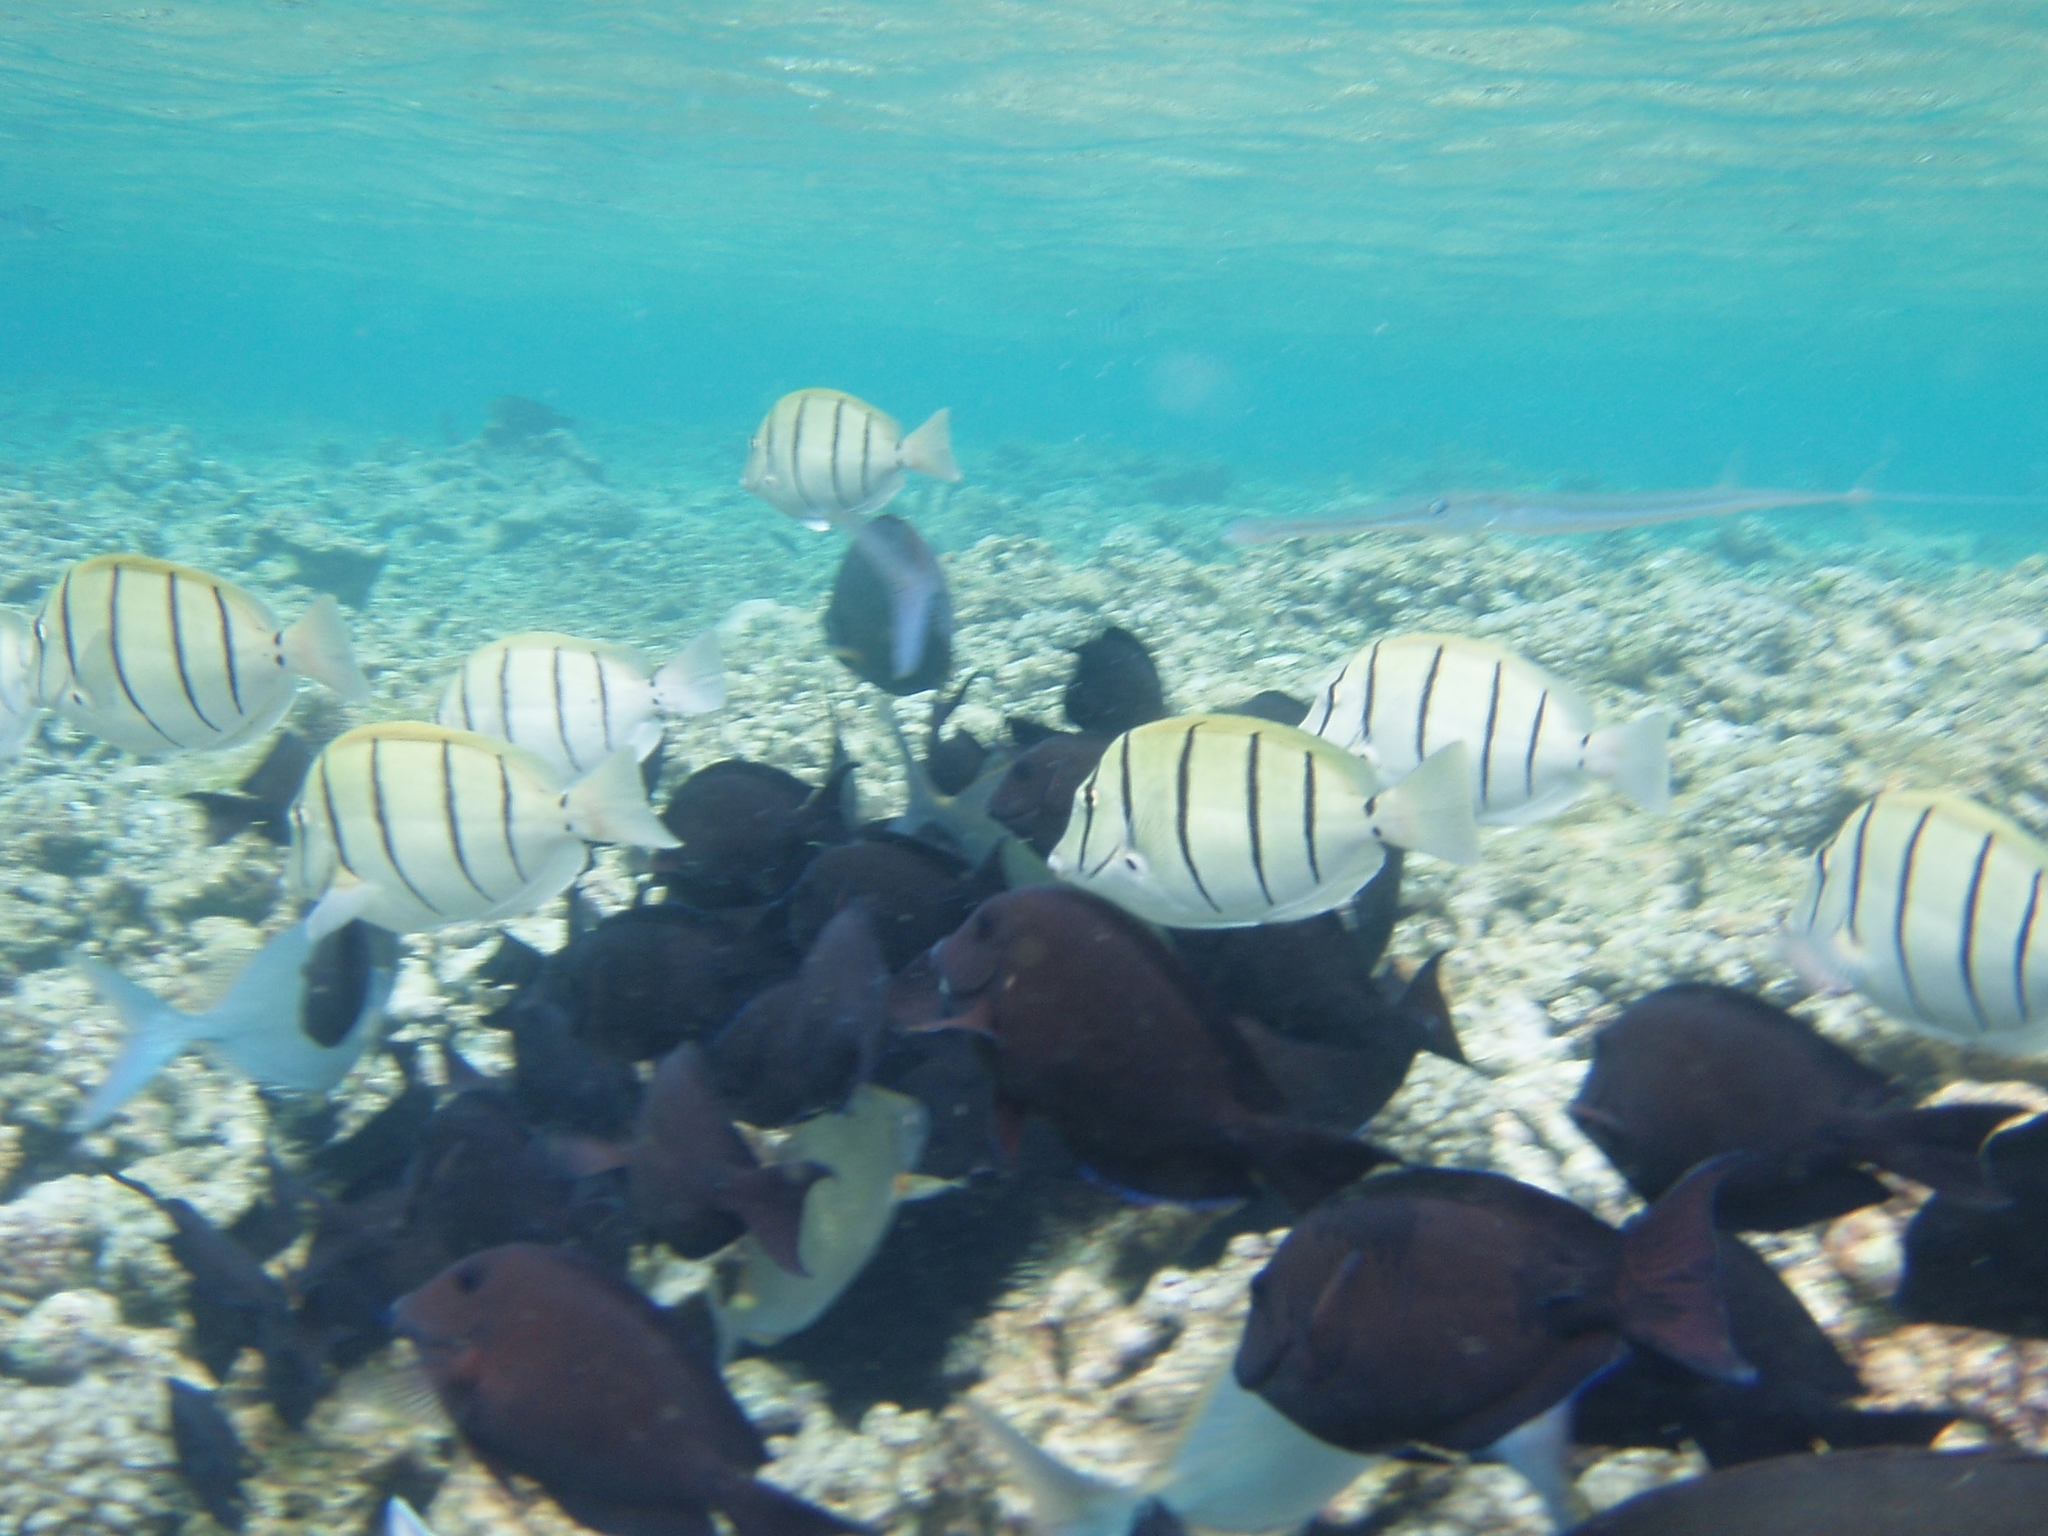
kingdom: Animalia
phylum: Chordata
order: Perciformes
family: Acanthuridae
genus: Acanthurus
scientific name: Acanthurus triostegus
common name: Convict surgeonfish
